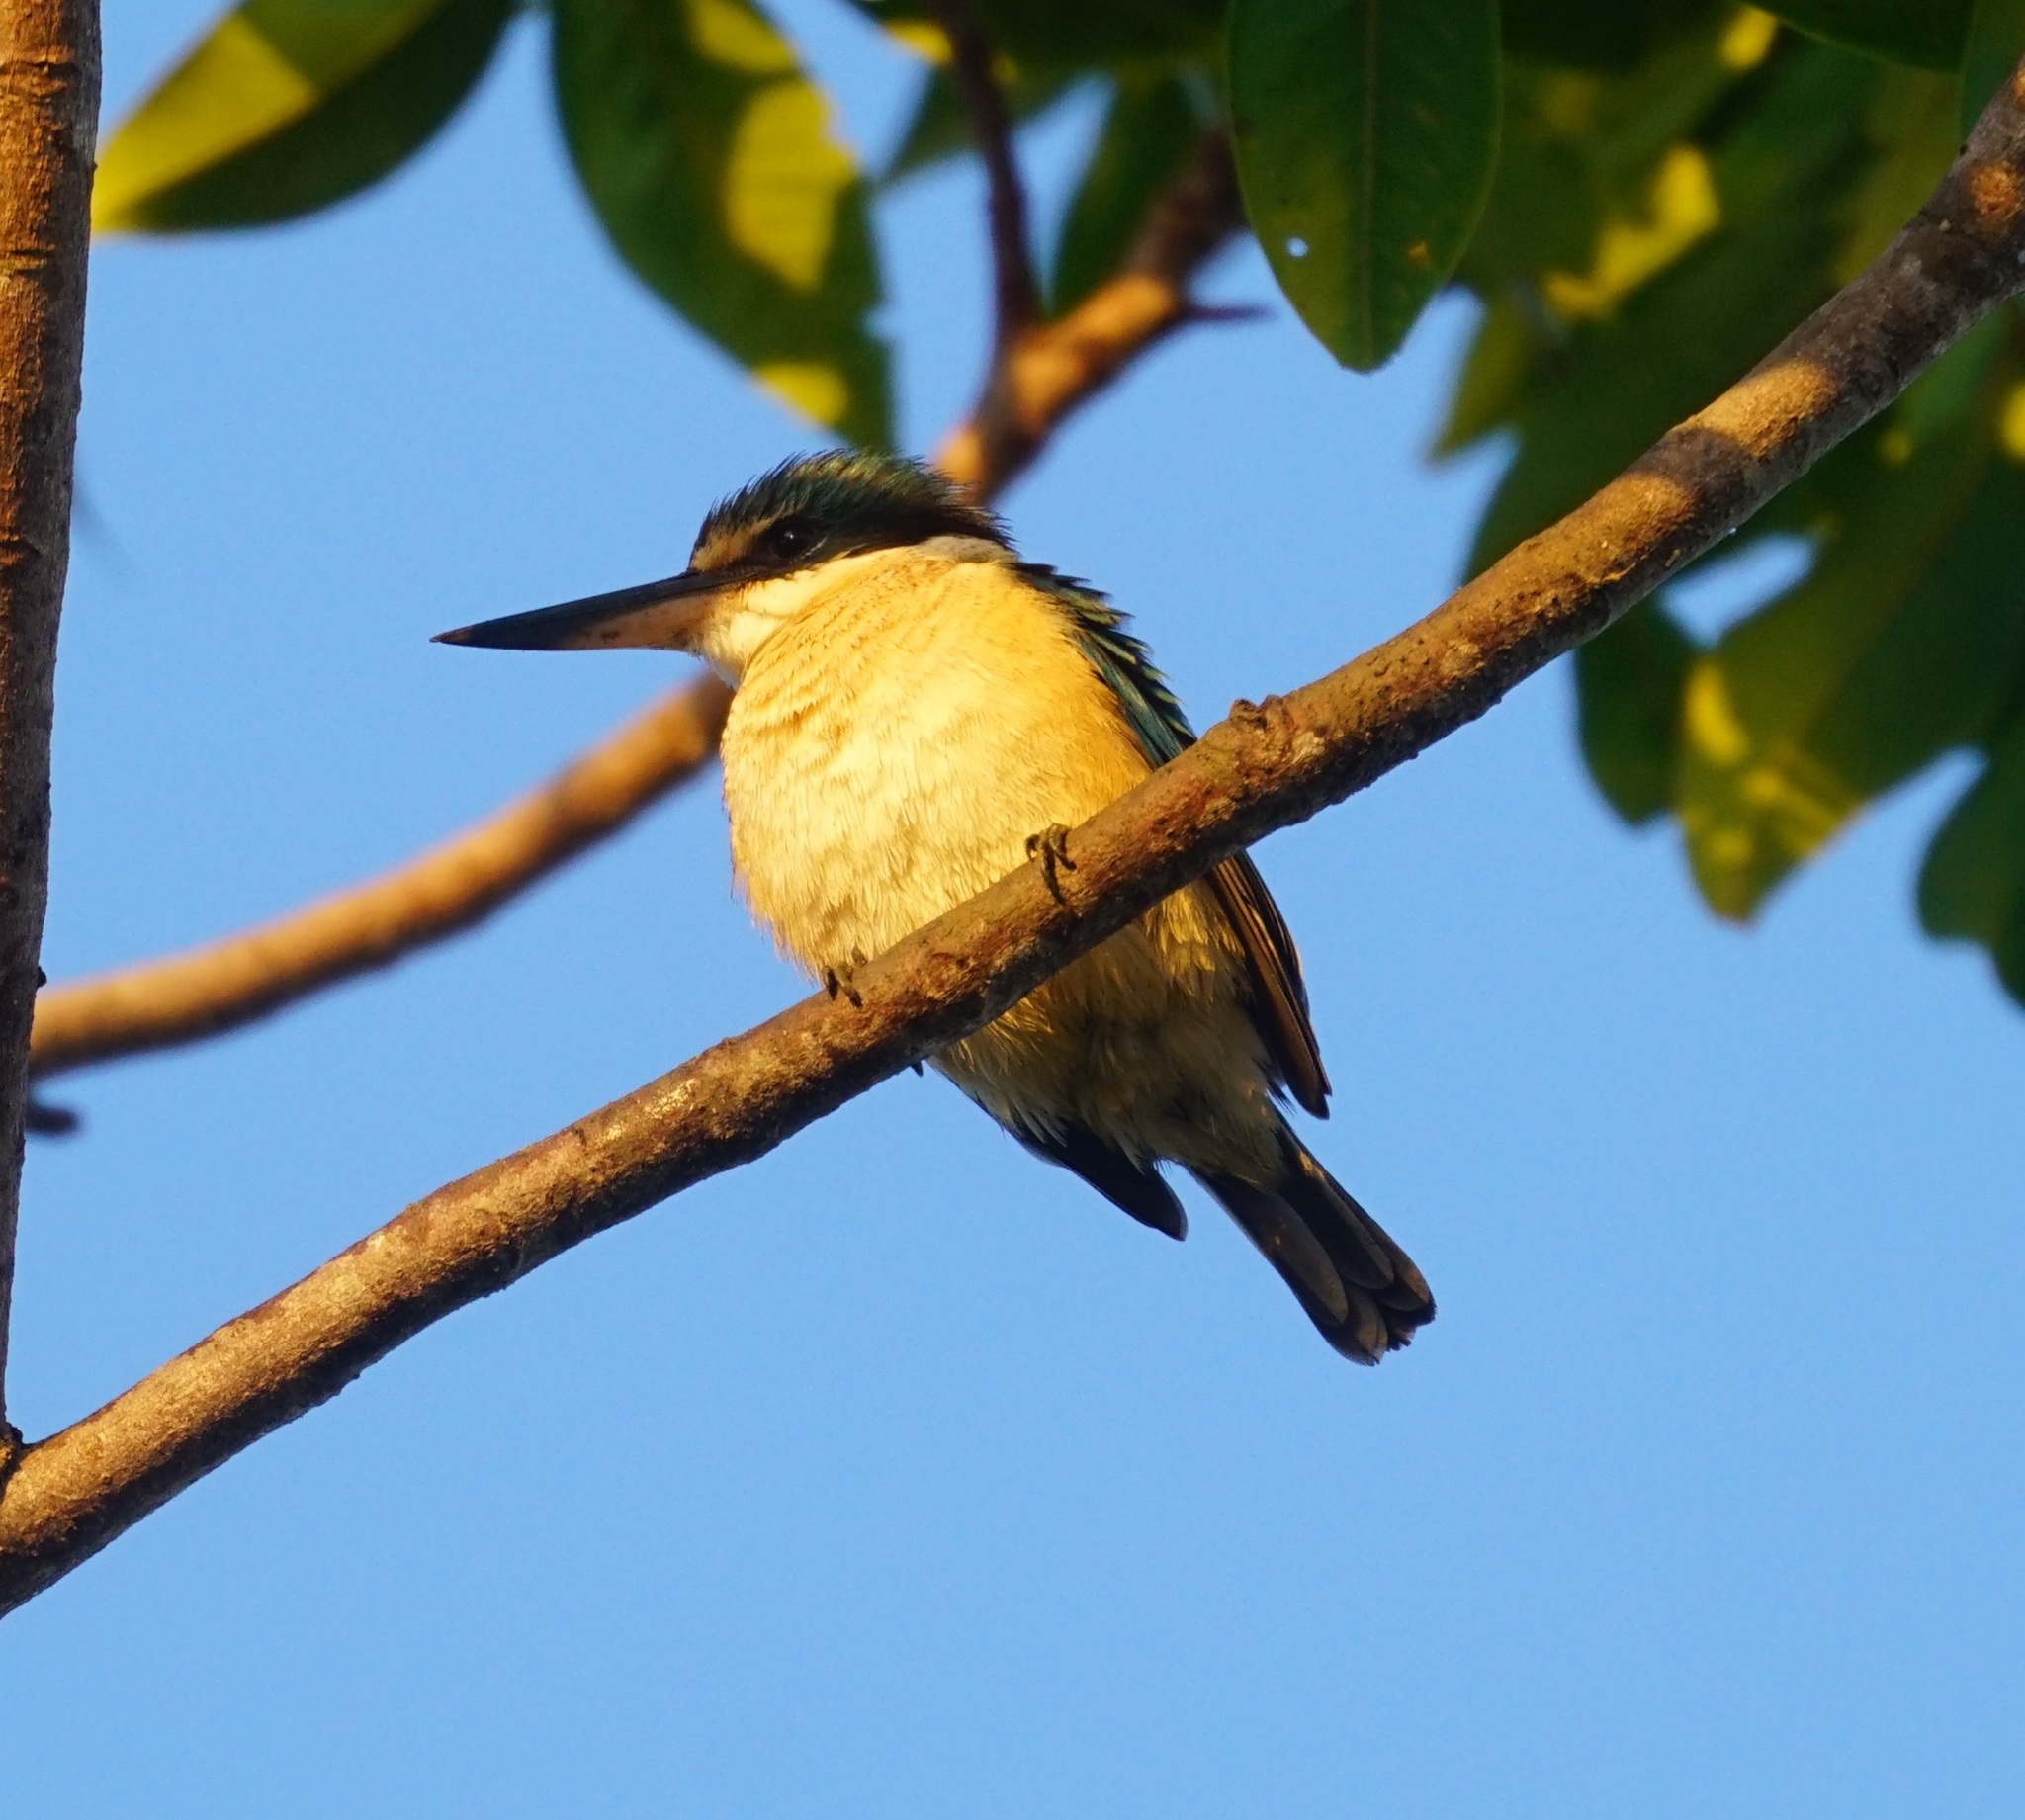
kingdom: Animalia
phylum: Chordata
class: Aves
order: Coraciiformes
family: Alcedinidae
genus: Todiramphus
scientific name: Todiramphus sanctus
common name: Sacred kingfisher
